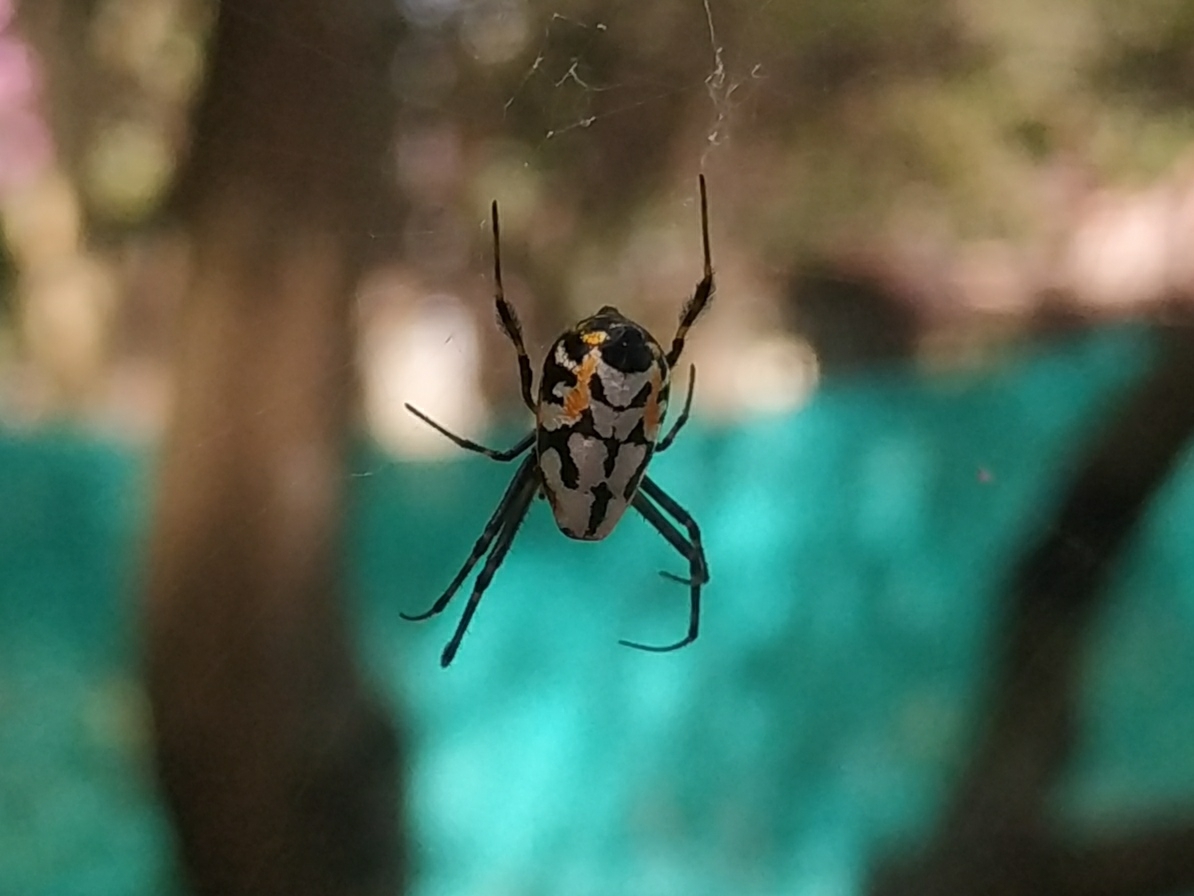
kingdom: Animalia
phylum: Arthropoda
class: Arachnida
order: Araneae
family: Tetragnathidae
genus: Leucauge
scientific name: Leucauge fastigata
